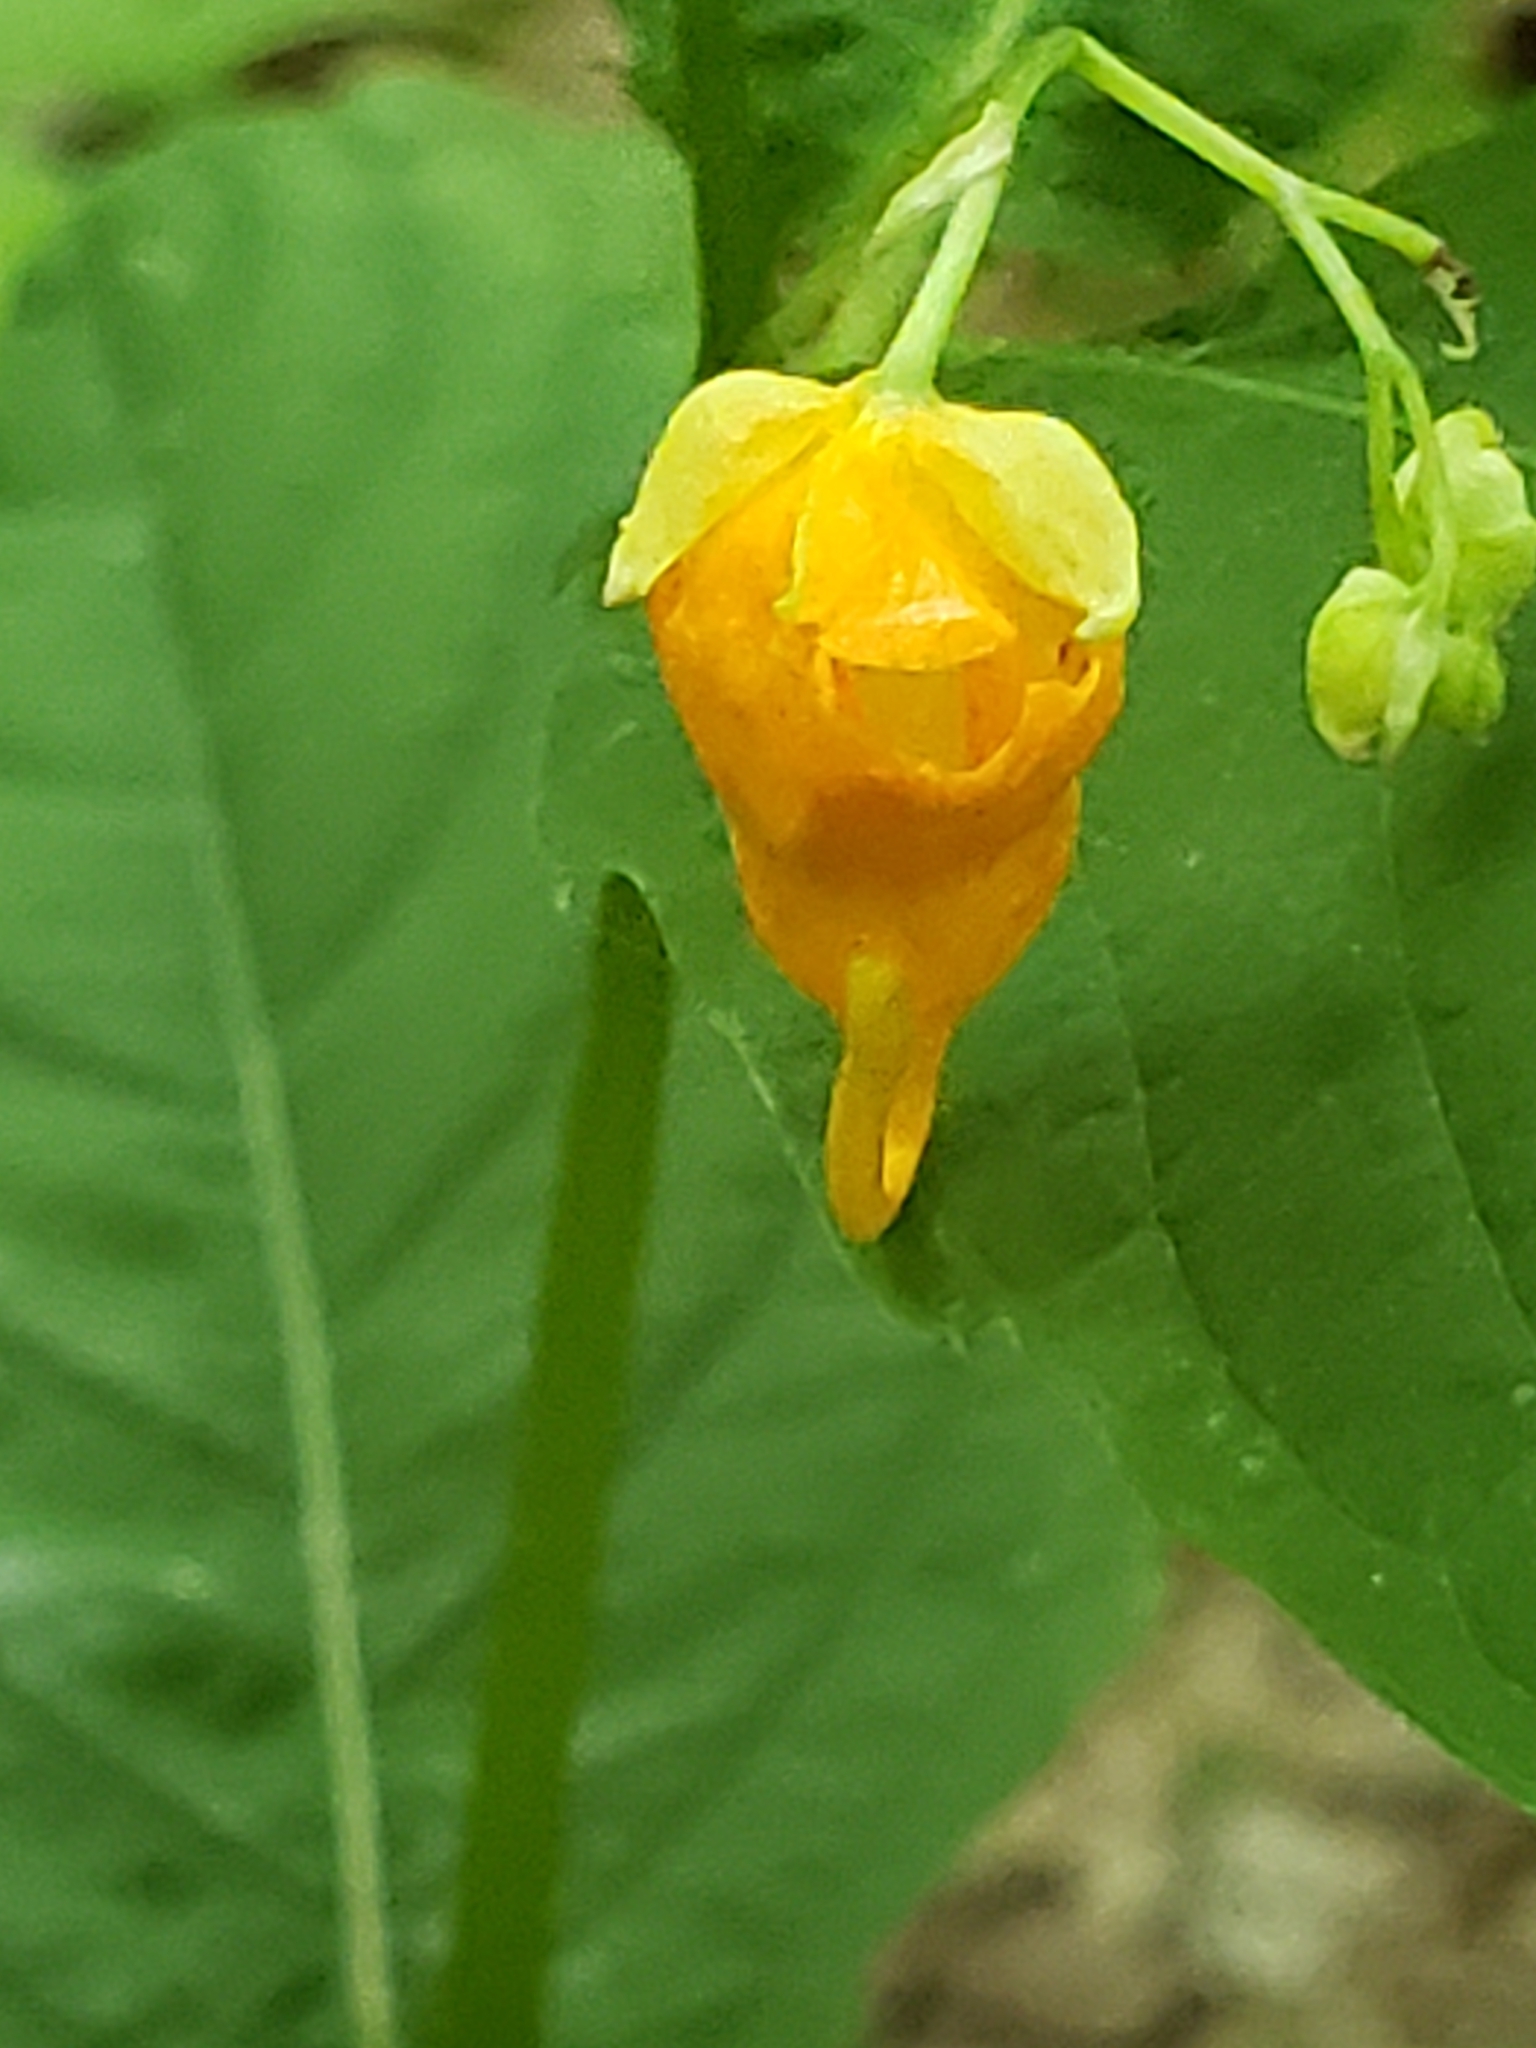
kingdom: Plantae
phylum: Tracheophyta
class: Magnoliopsida
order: Ericales
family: Balsaminaceae
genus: Impatiens
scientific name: Impatiens capensis
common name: Orange balsam
